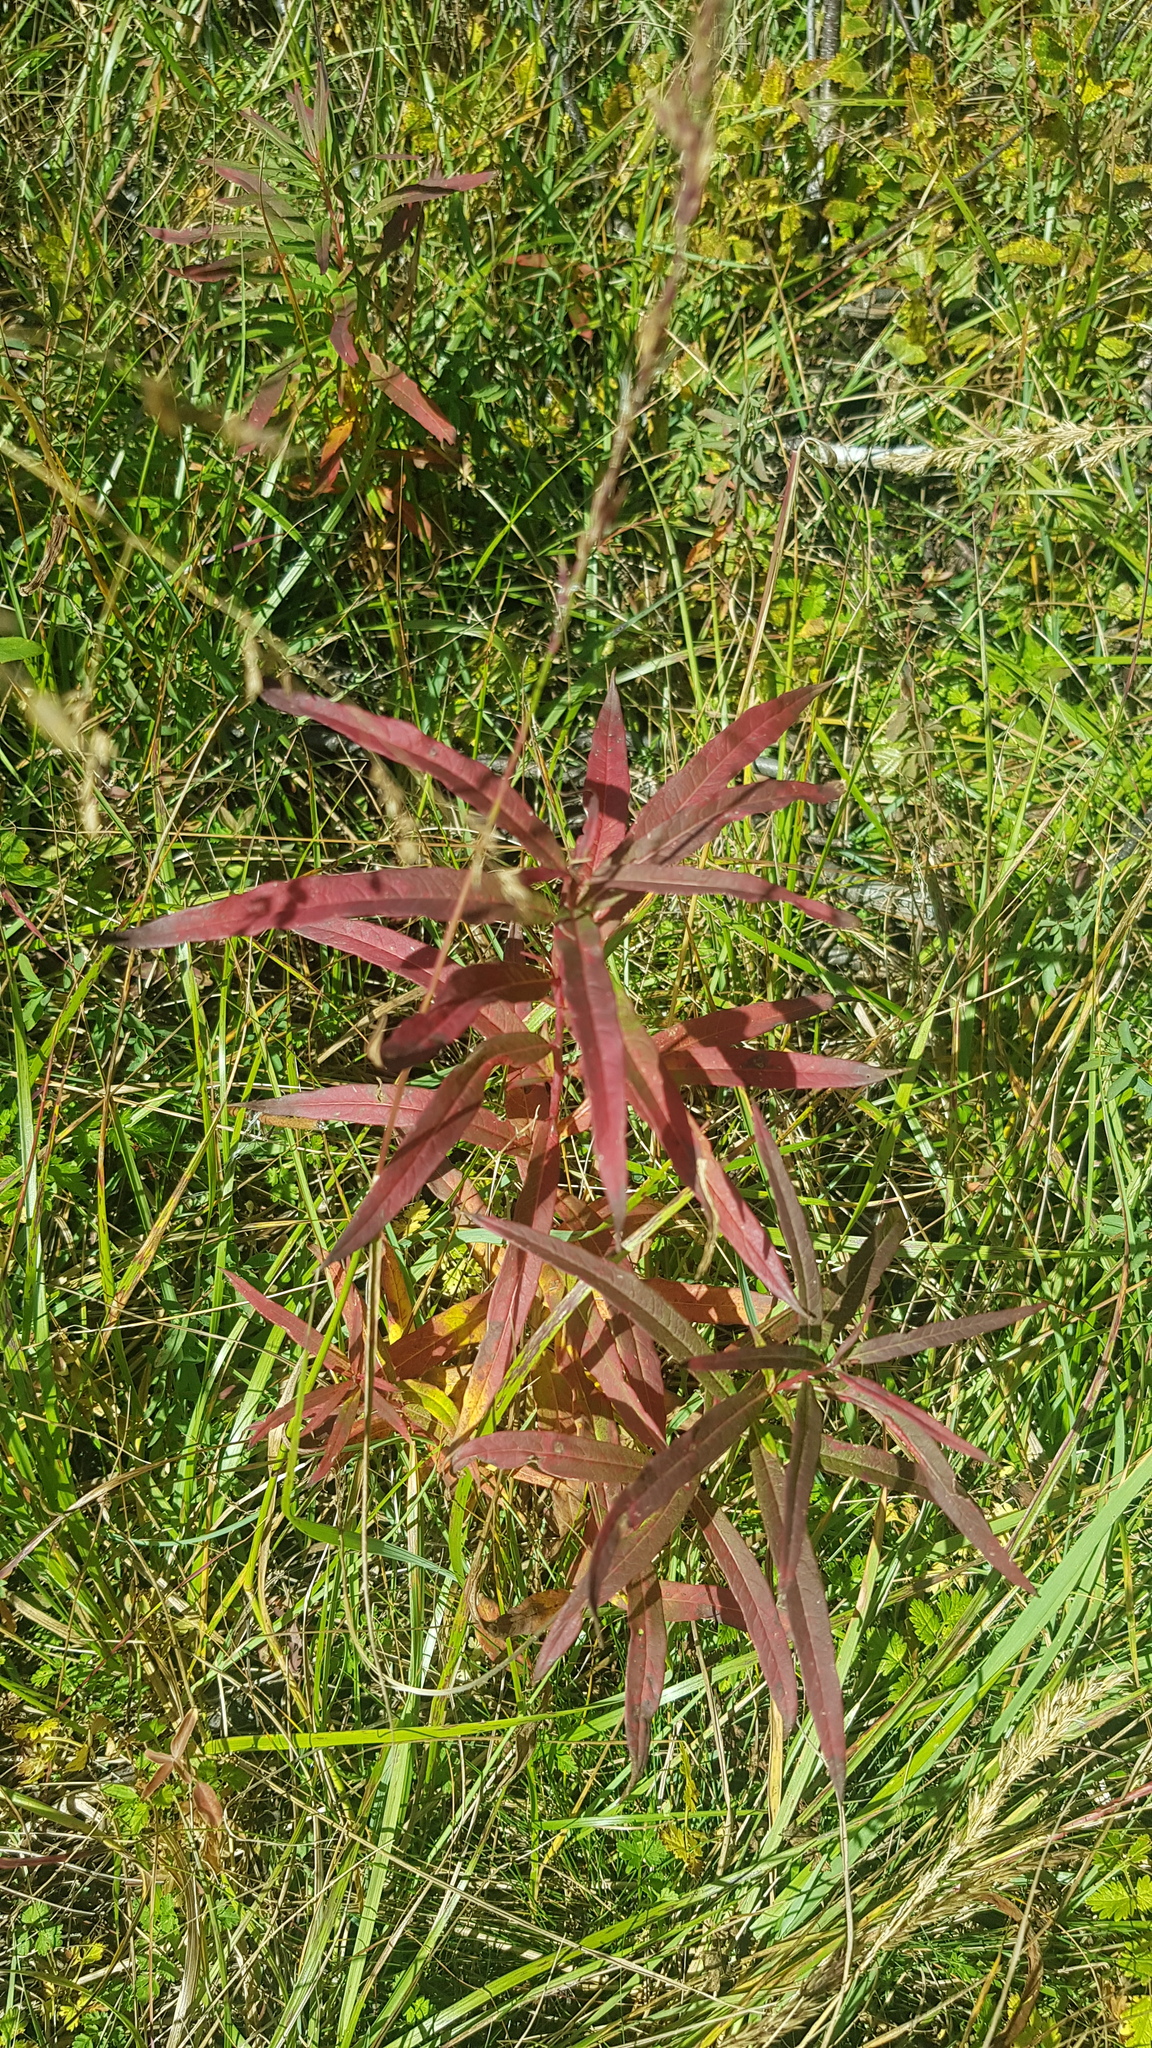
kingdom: Plantae
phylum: Tracheophyta
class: Magnoliopsida
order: Myrtales
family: Onagraceae
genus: Chamaenerion
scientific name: Chamaenerion angustifolium
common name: Fireweed
